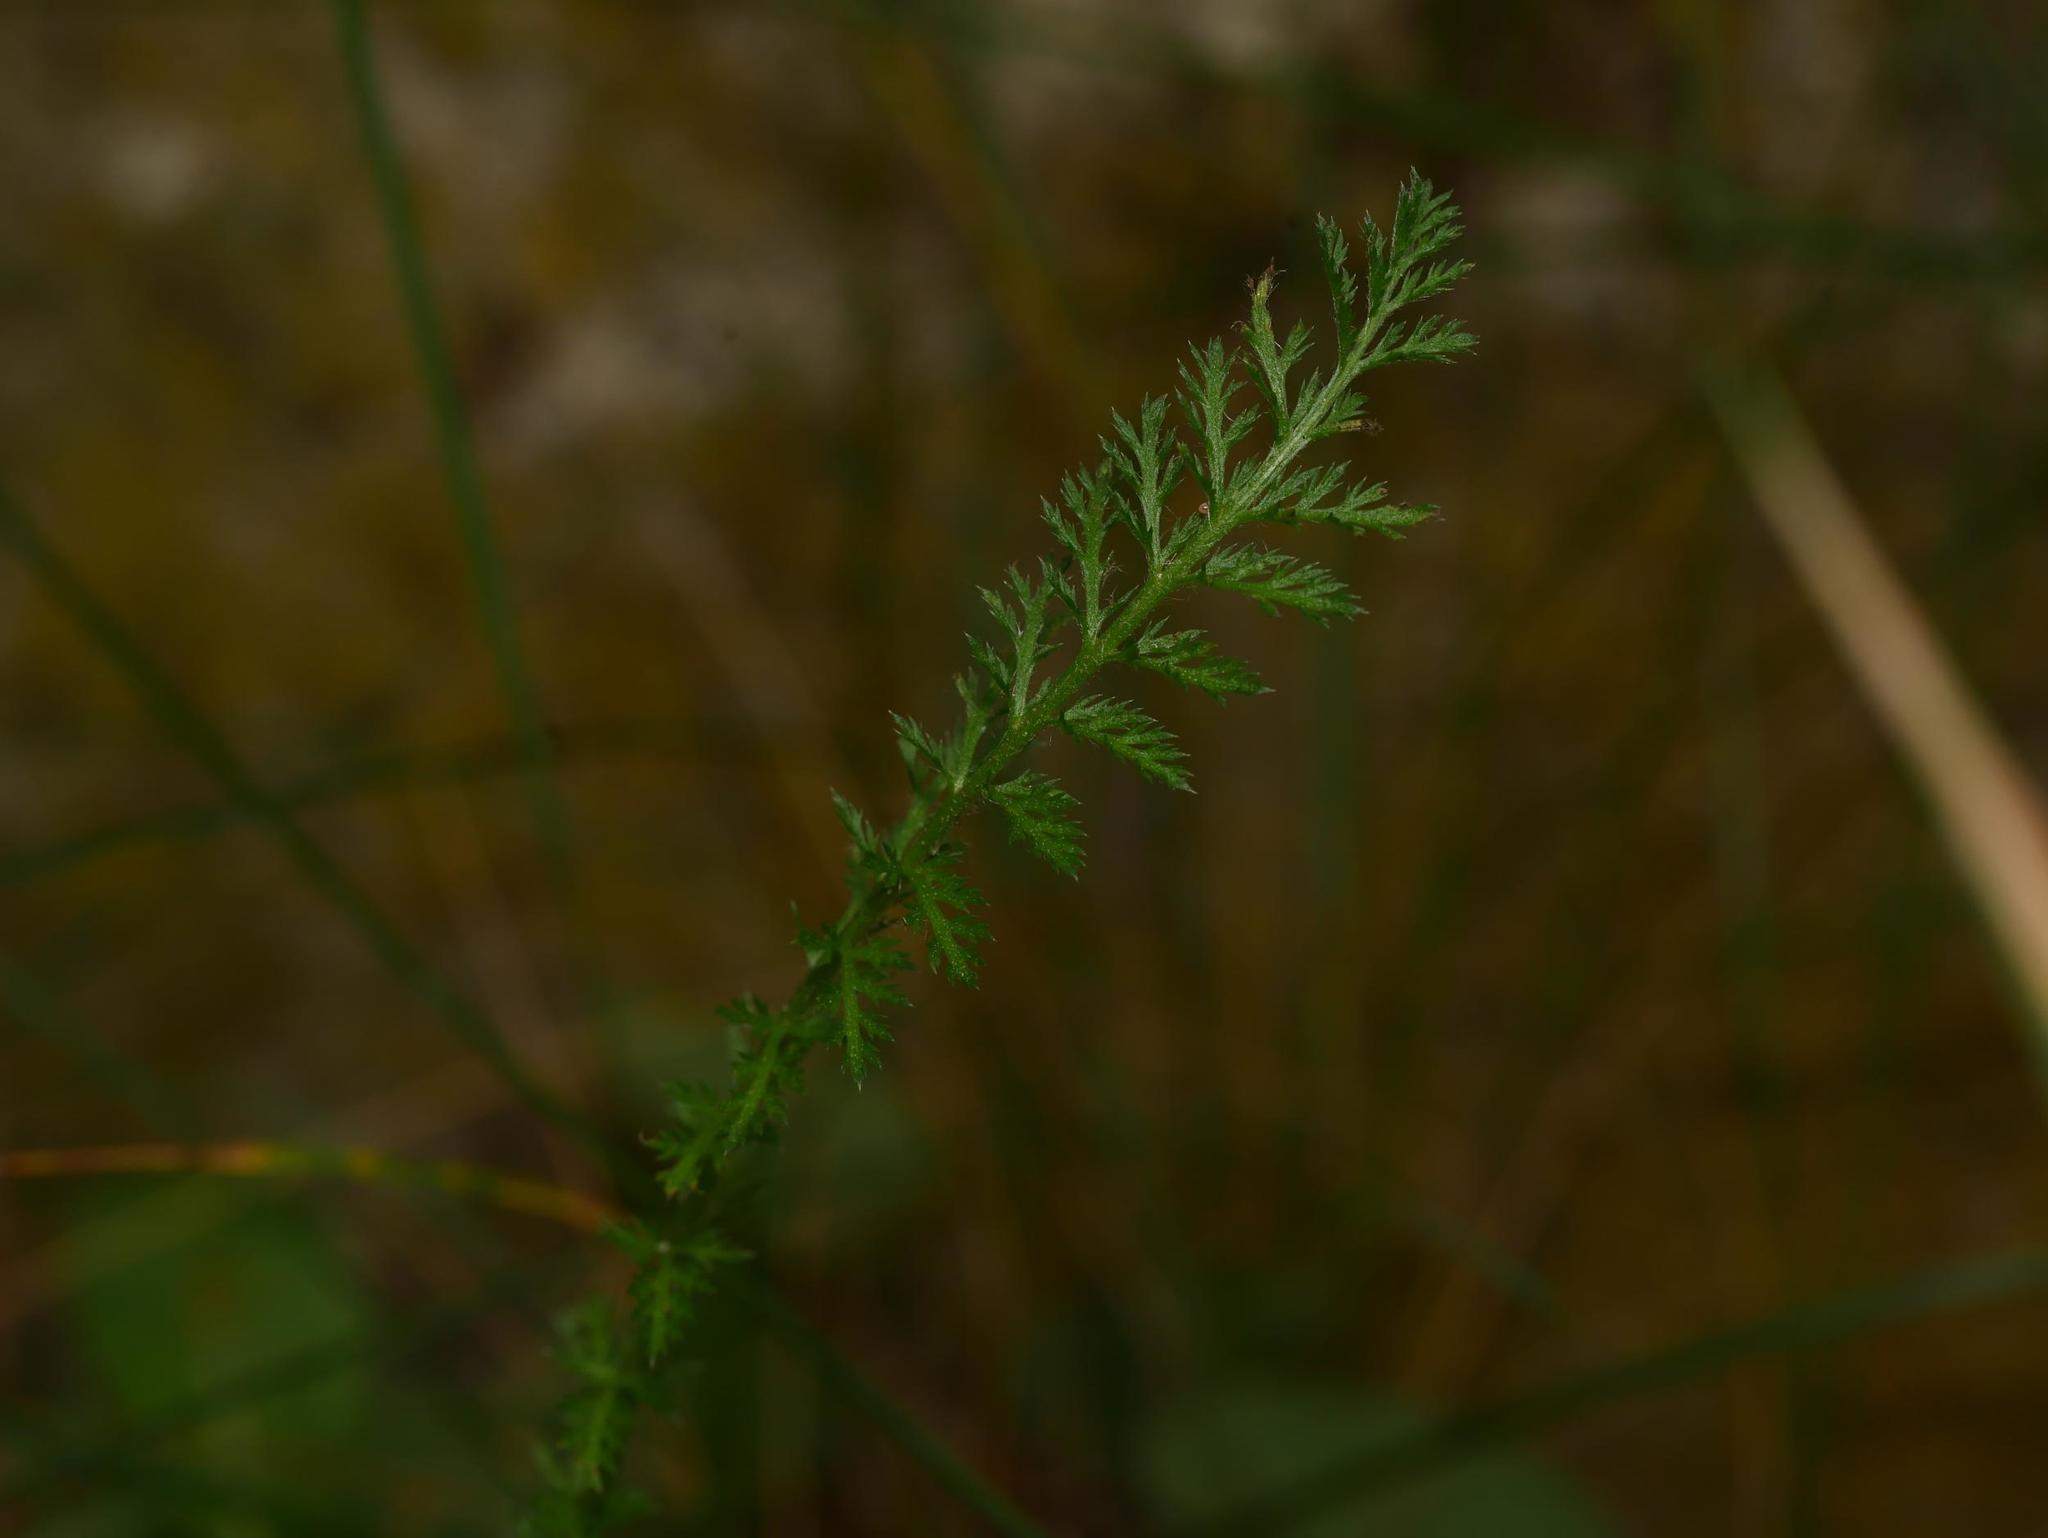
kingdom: Plantae
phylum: Tracheophyta
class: Magnoliopsida
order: Asterales
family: Asteraceae
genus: Achillea
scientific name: Achillea millefolium
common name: Yarrow
